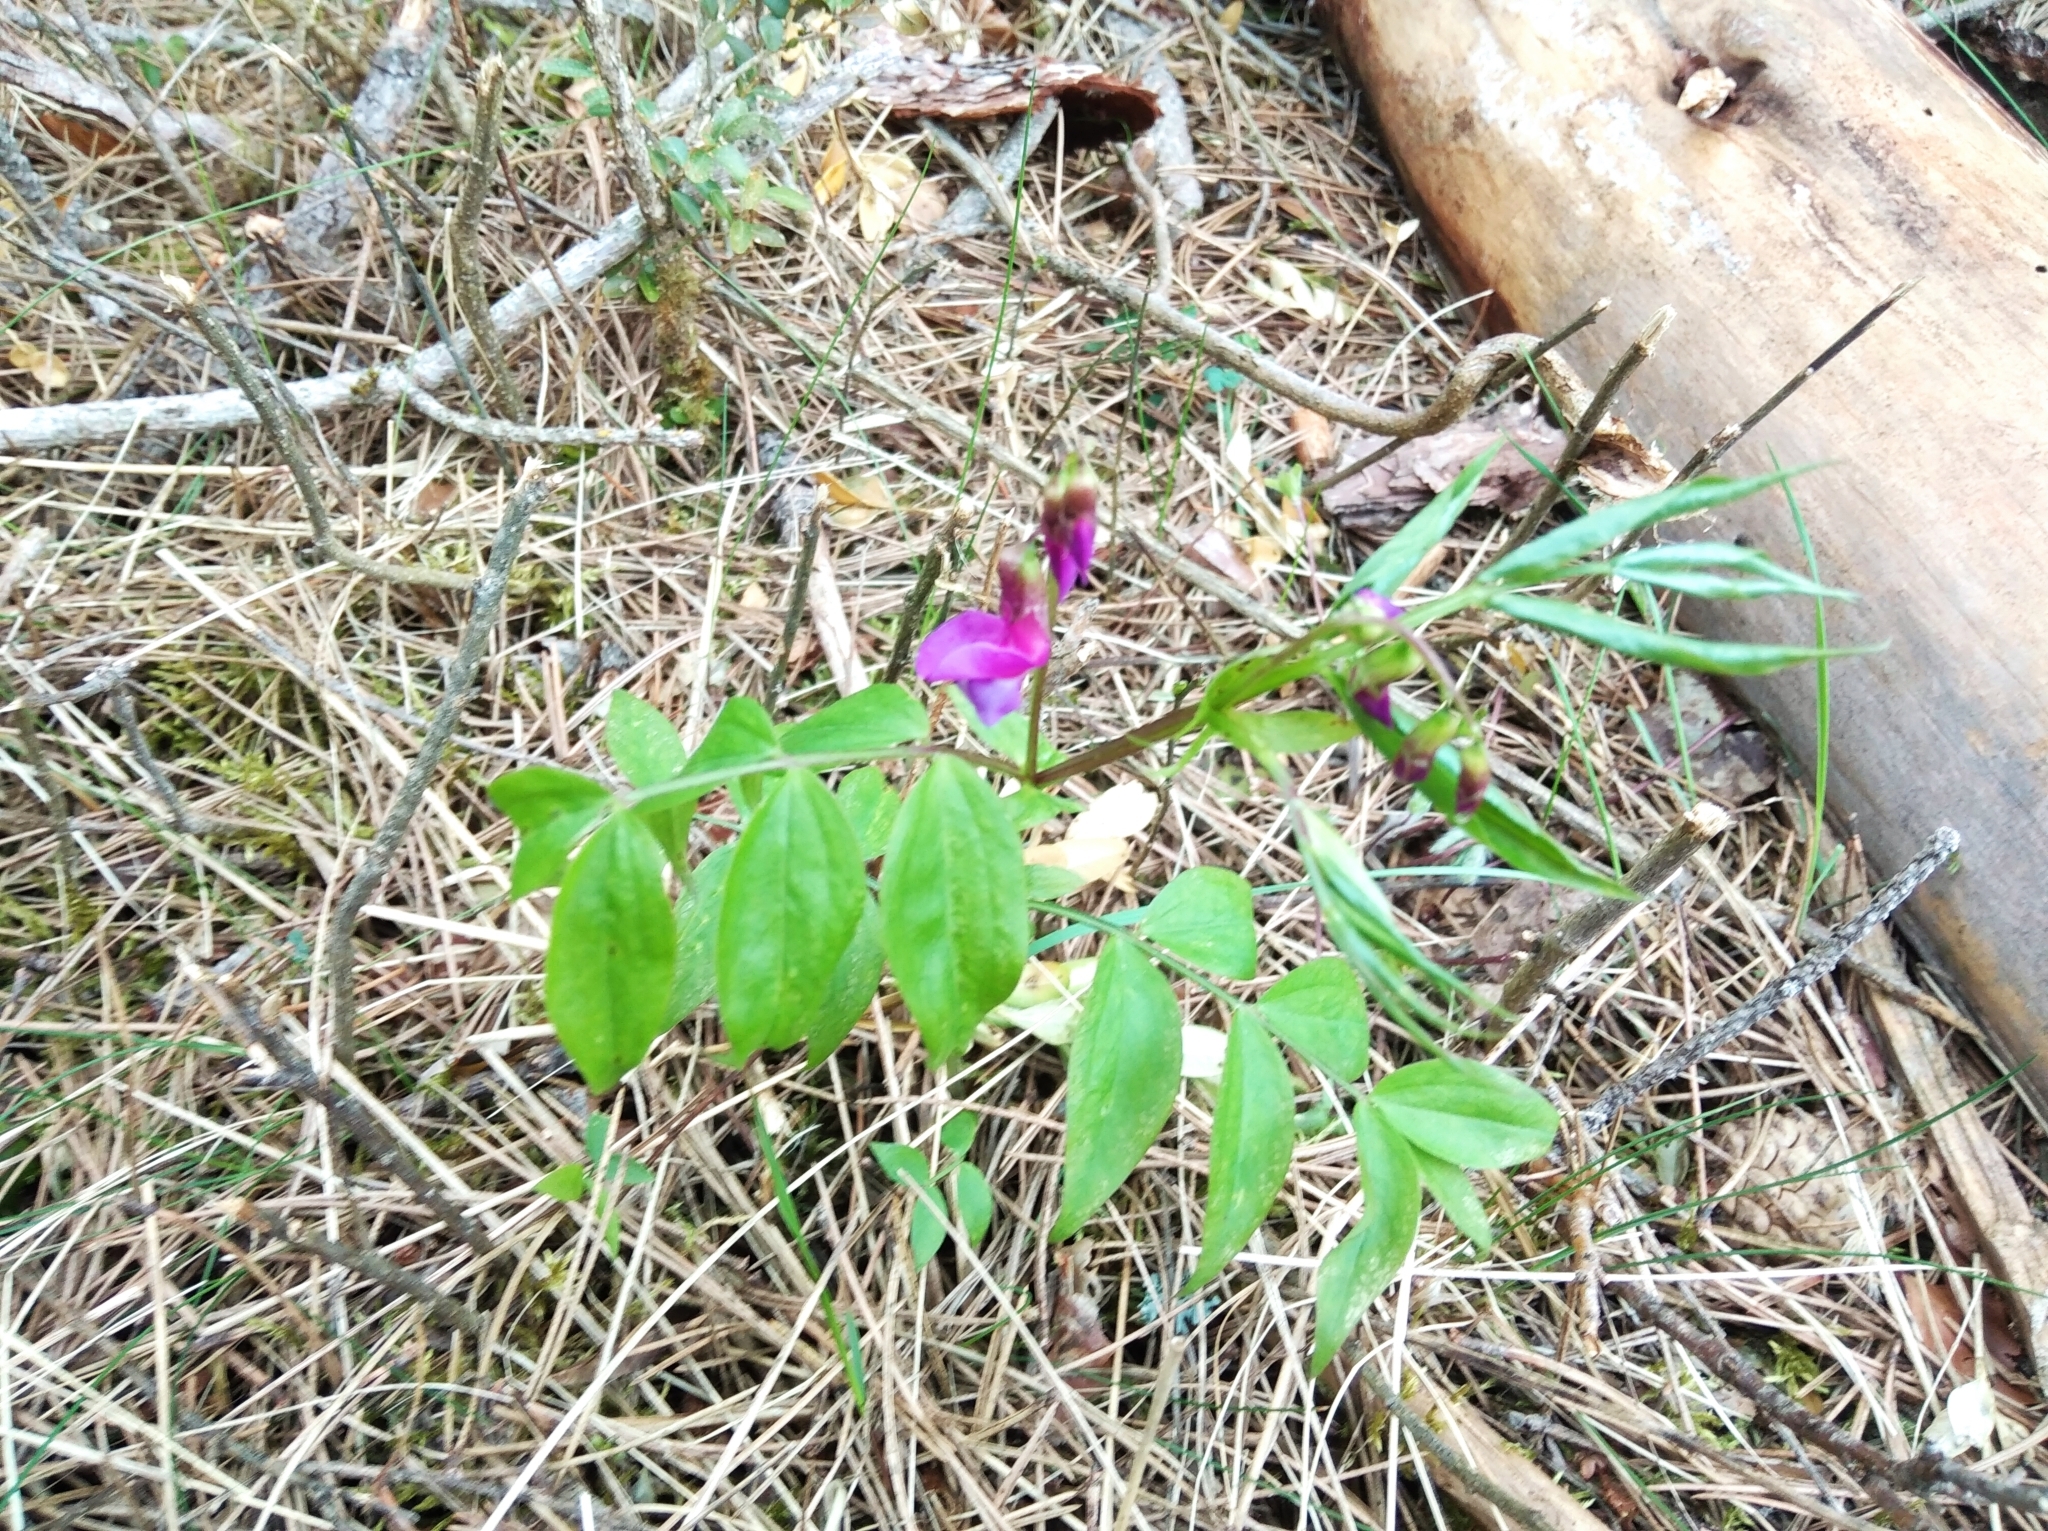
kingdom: Plantae
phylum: Tracheophyta
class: Magnoliopsida
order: Fabales
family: Fabaceae
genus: Lathyrus
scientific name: Lathyrus vernus
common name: Spring pea
